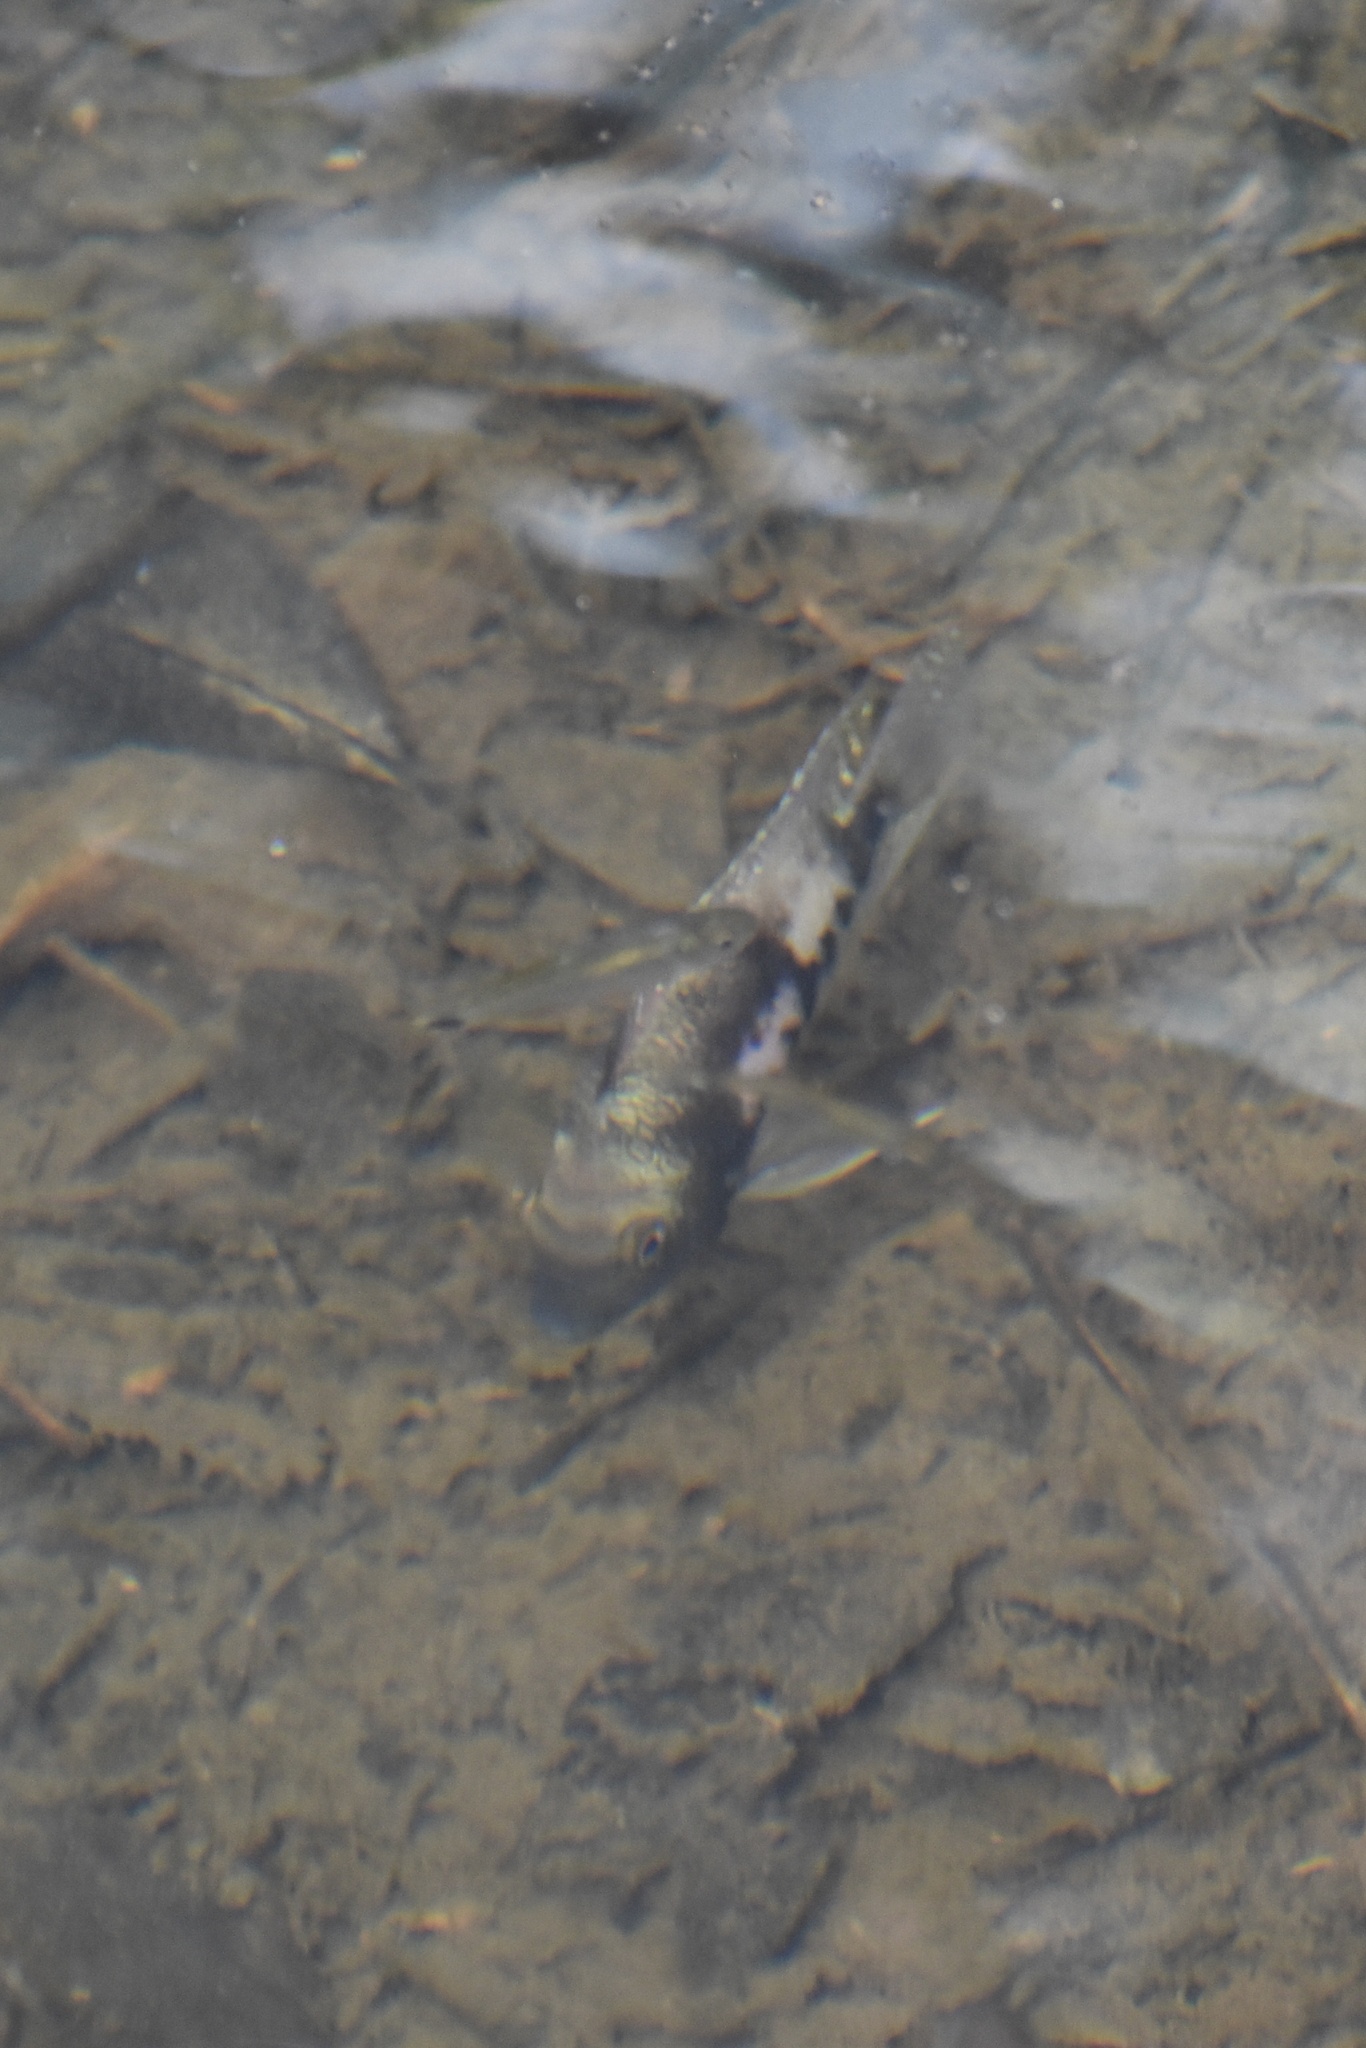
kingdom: Animalia
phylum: Chordata
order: Perciformes
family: Cichlidae
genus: Cryptoheros
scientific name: Cryptoheros panamensis
